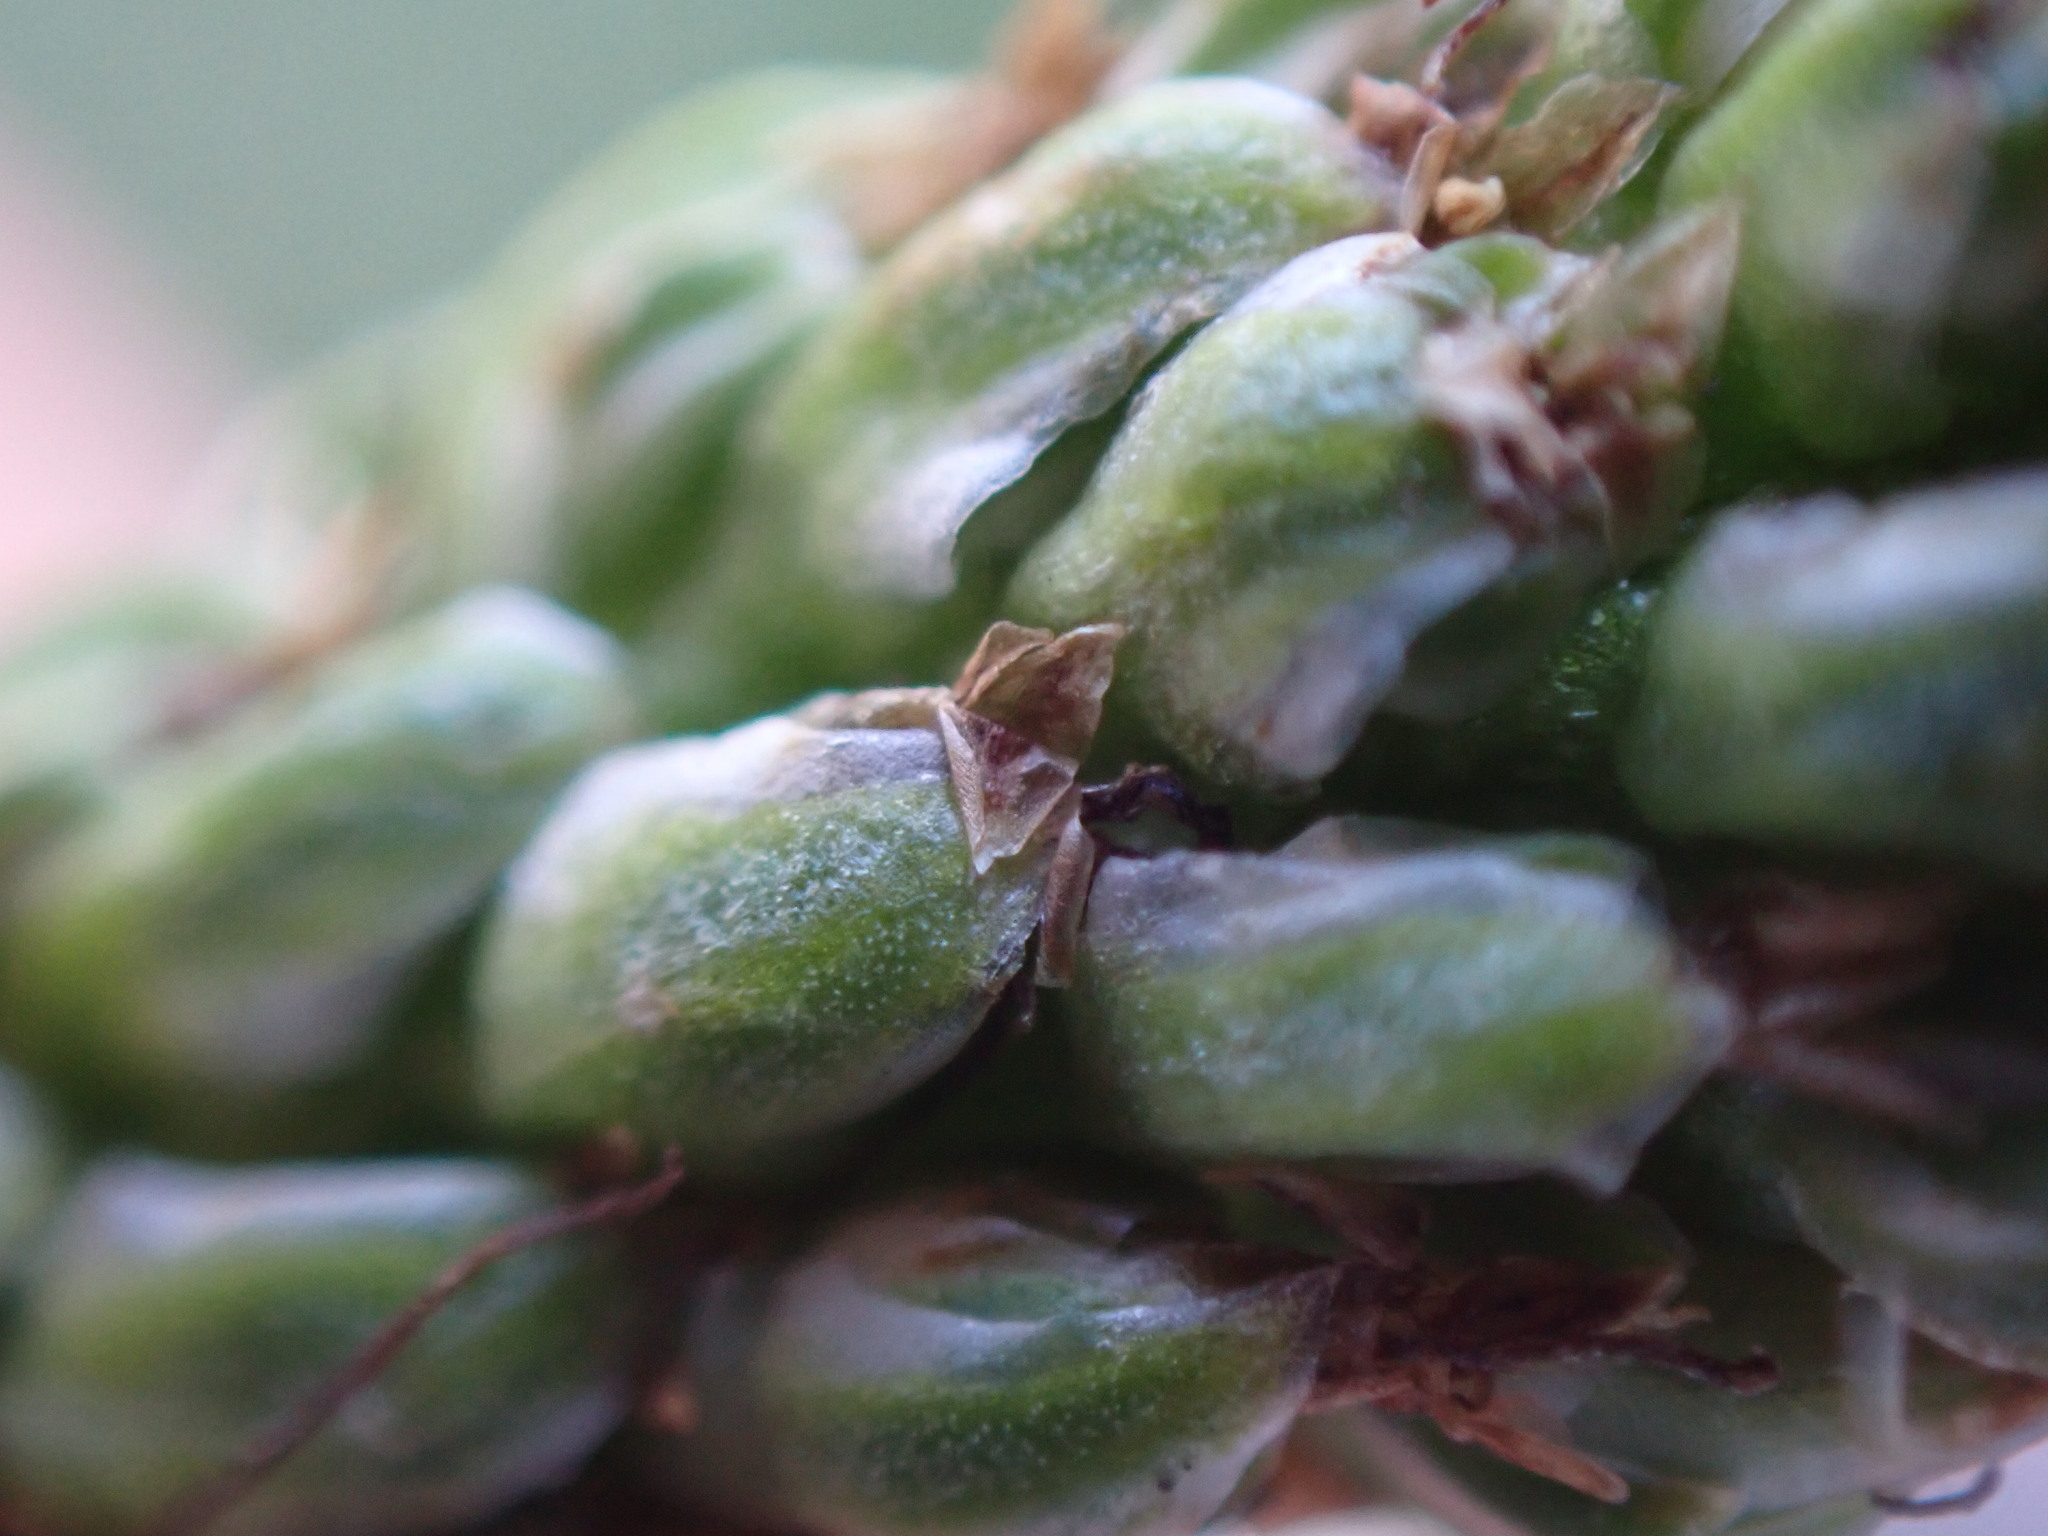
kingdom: Plantae
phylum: Tracheophyta
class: Magnoliopsida
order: Lamiales
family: Plantaginaceae
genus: Plantago
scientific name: Plantago major
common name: Common plantain
